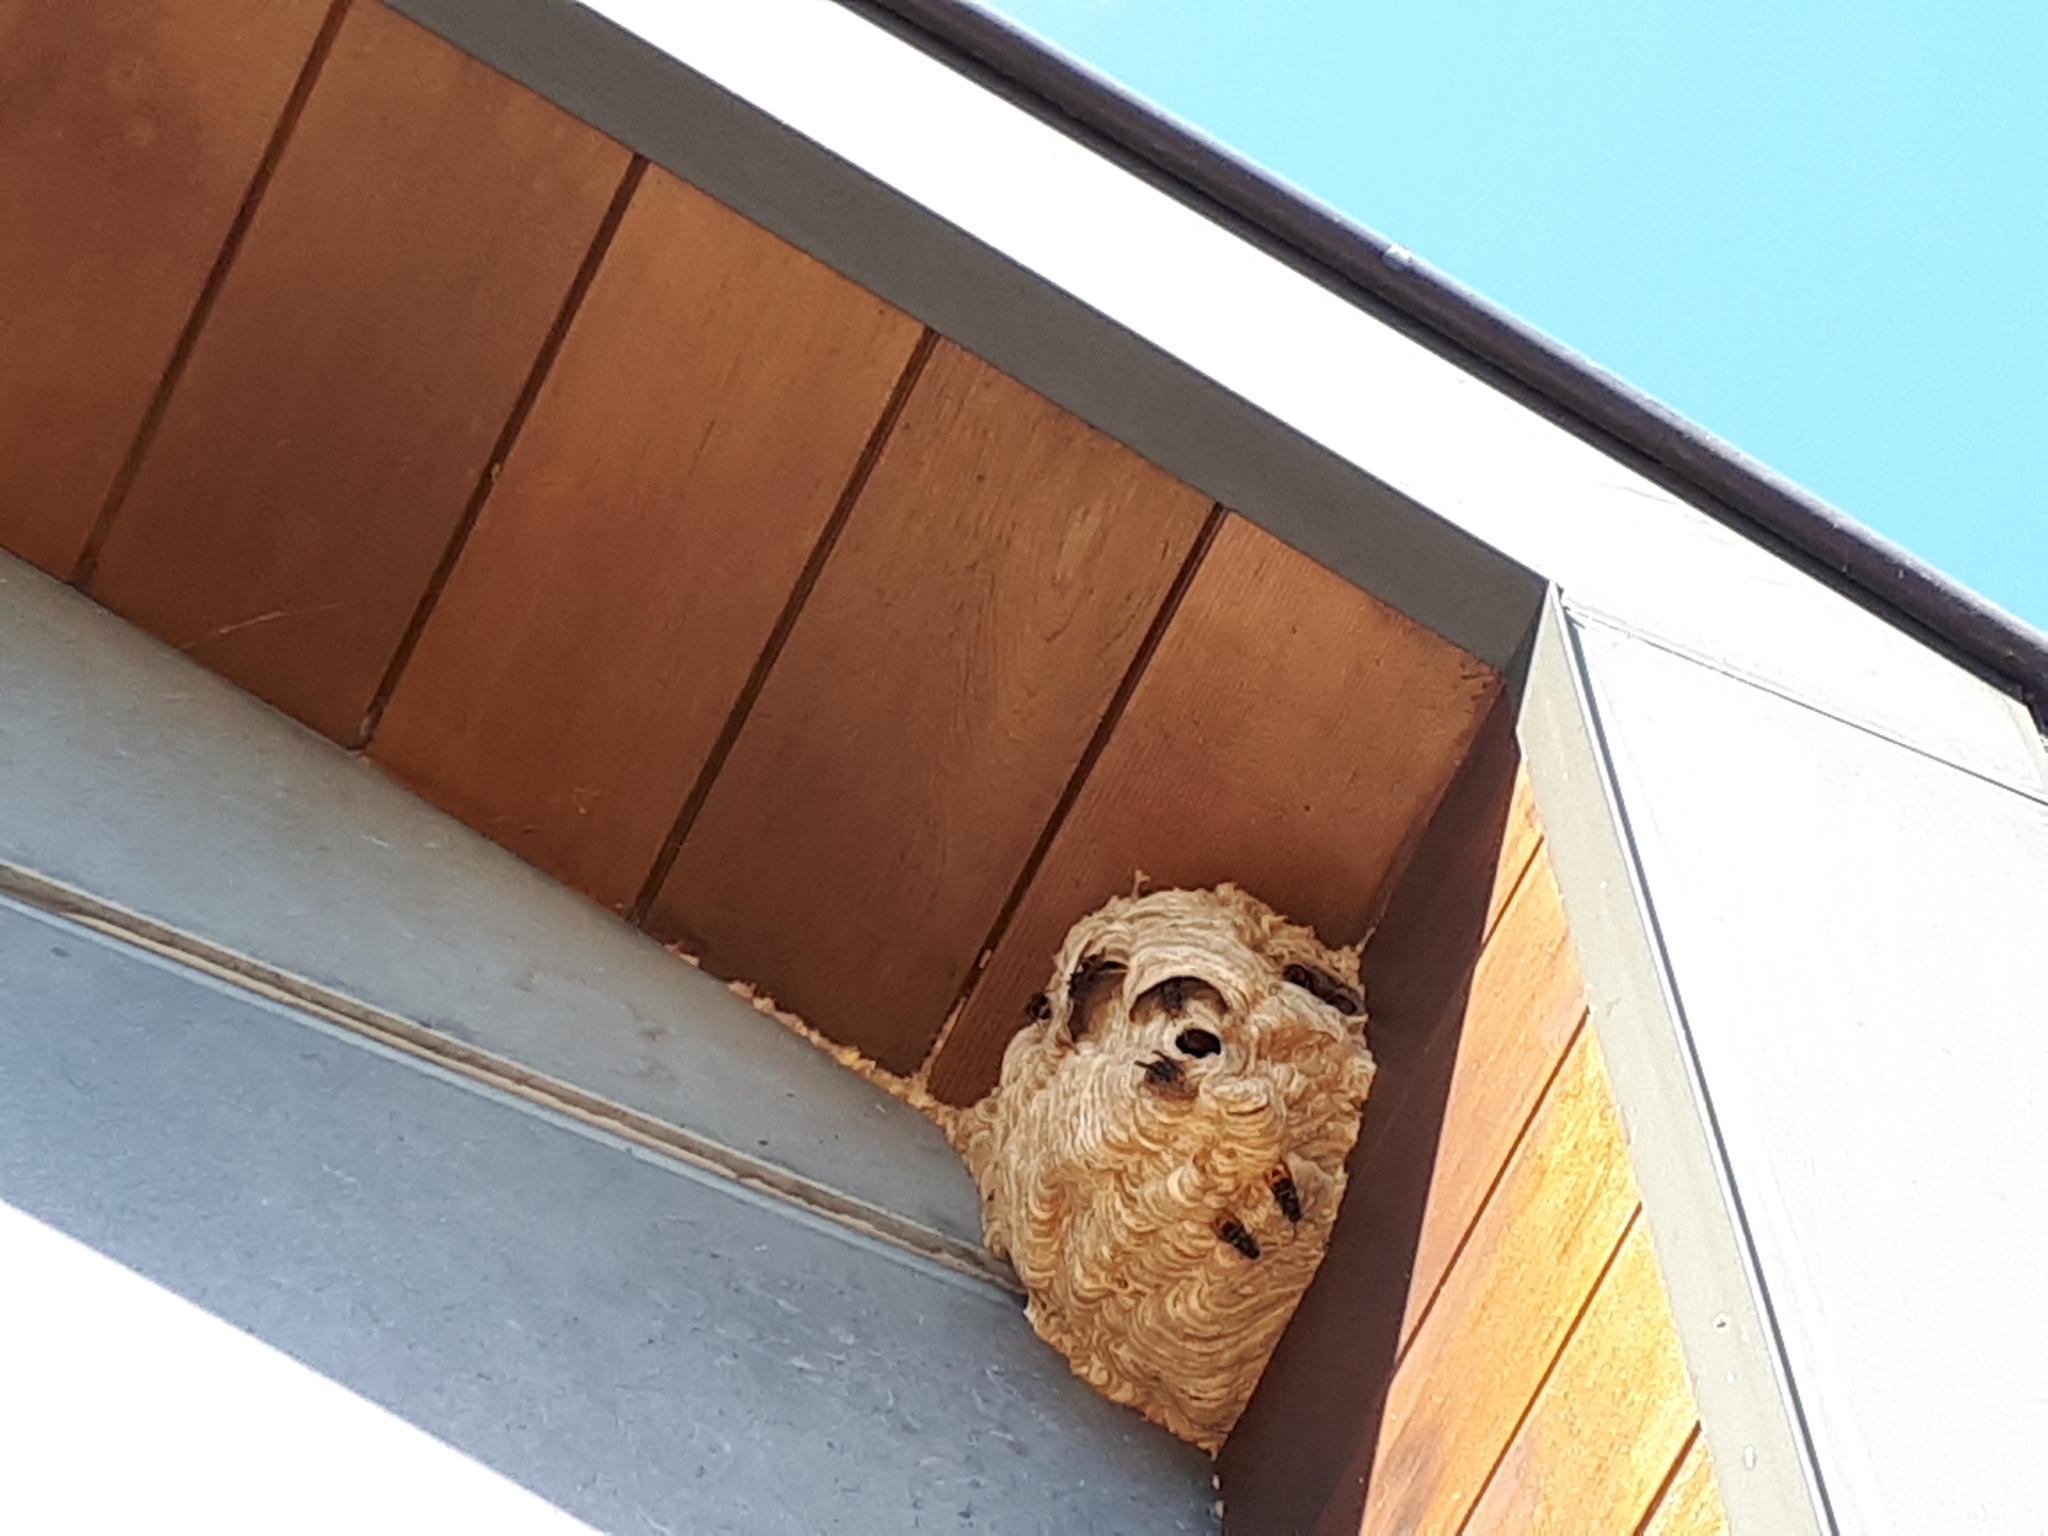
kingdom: Animalia
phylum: Arthropoda
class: Insecta
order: Hymenoptera
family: Vespidae
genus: Vespa
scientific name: Vespa velutina
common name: Asian hornet
